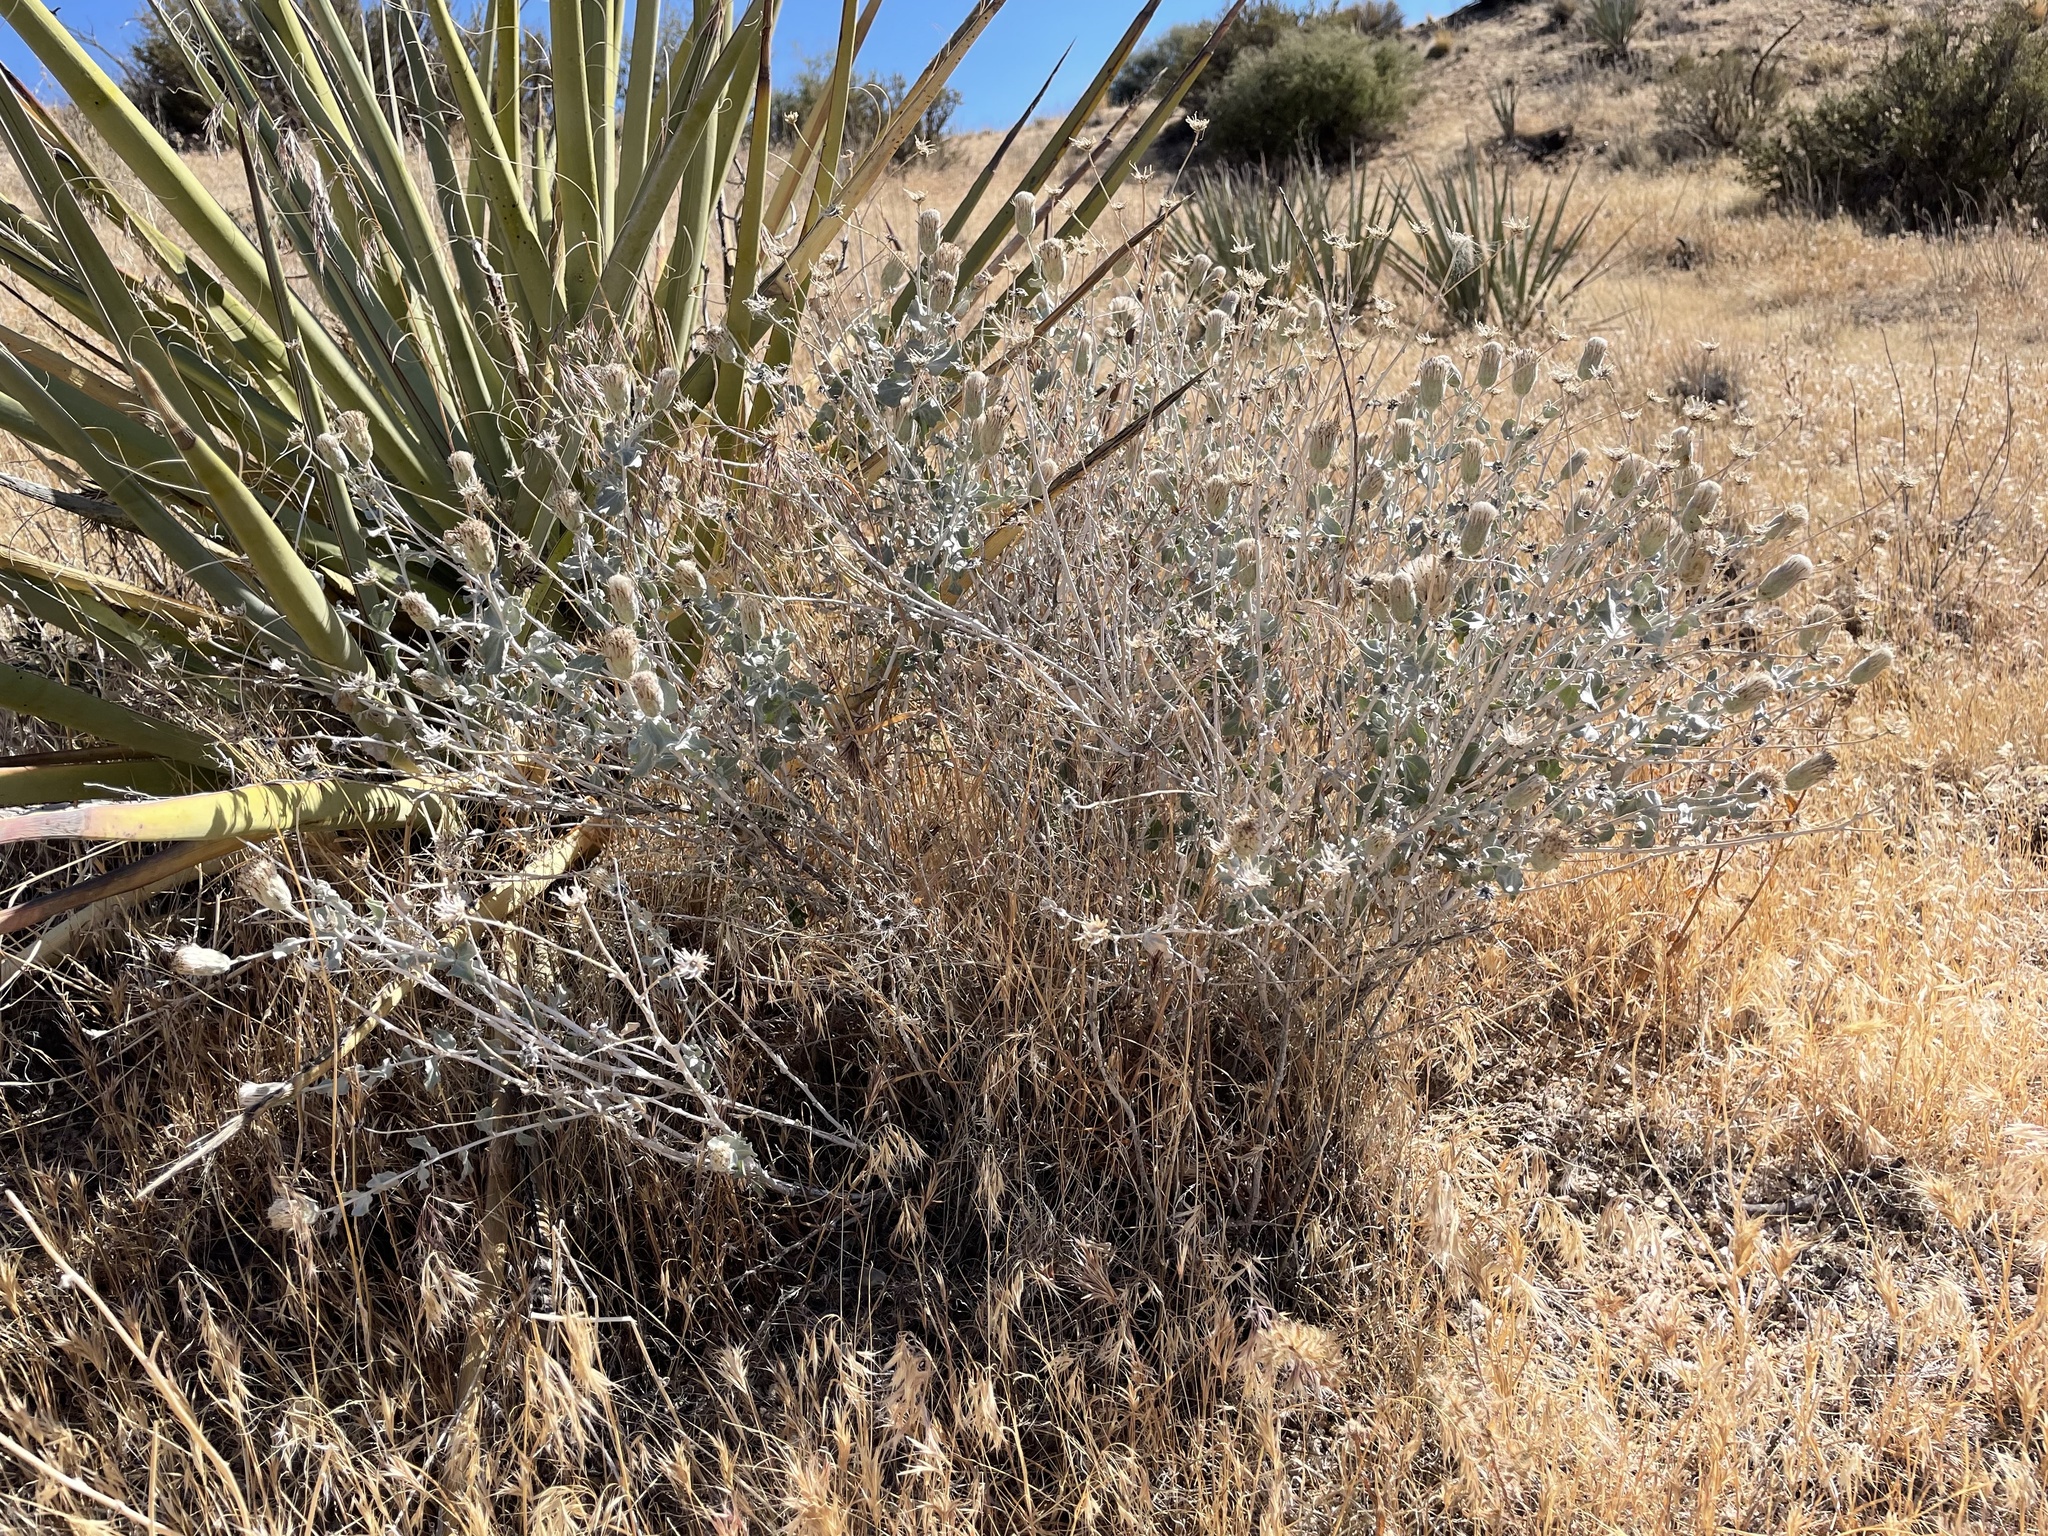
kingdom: Plantae
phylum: Tracheophyta
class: Magnoliopsida
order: Asterales
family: Asteraceae
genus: Brickellia
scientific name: Brickellia incana
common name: Woolly brickelbush
